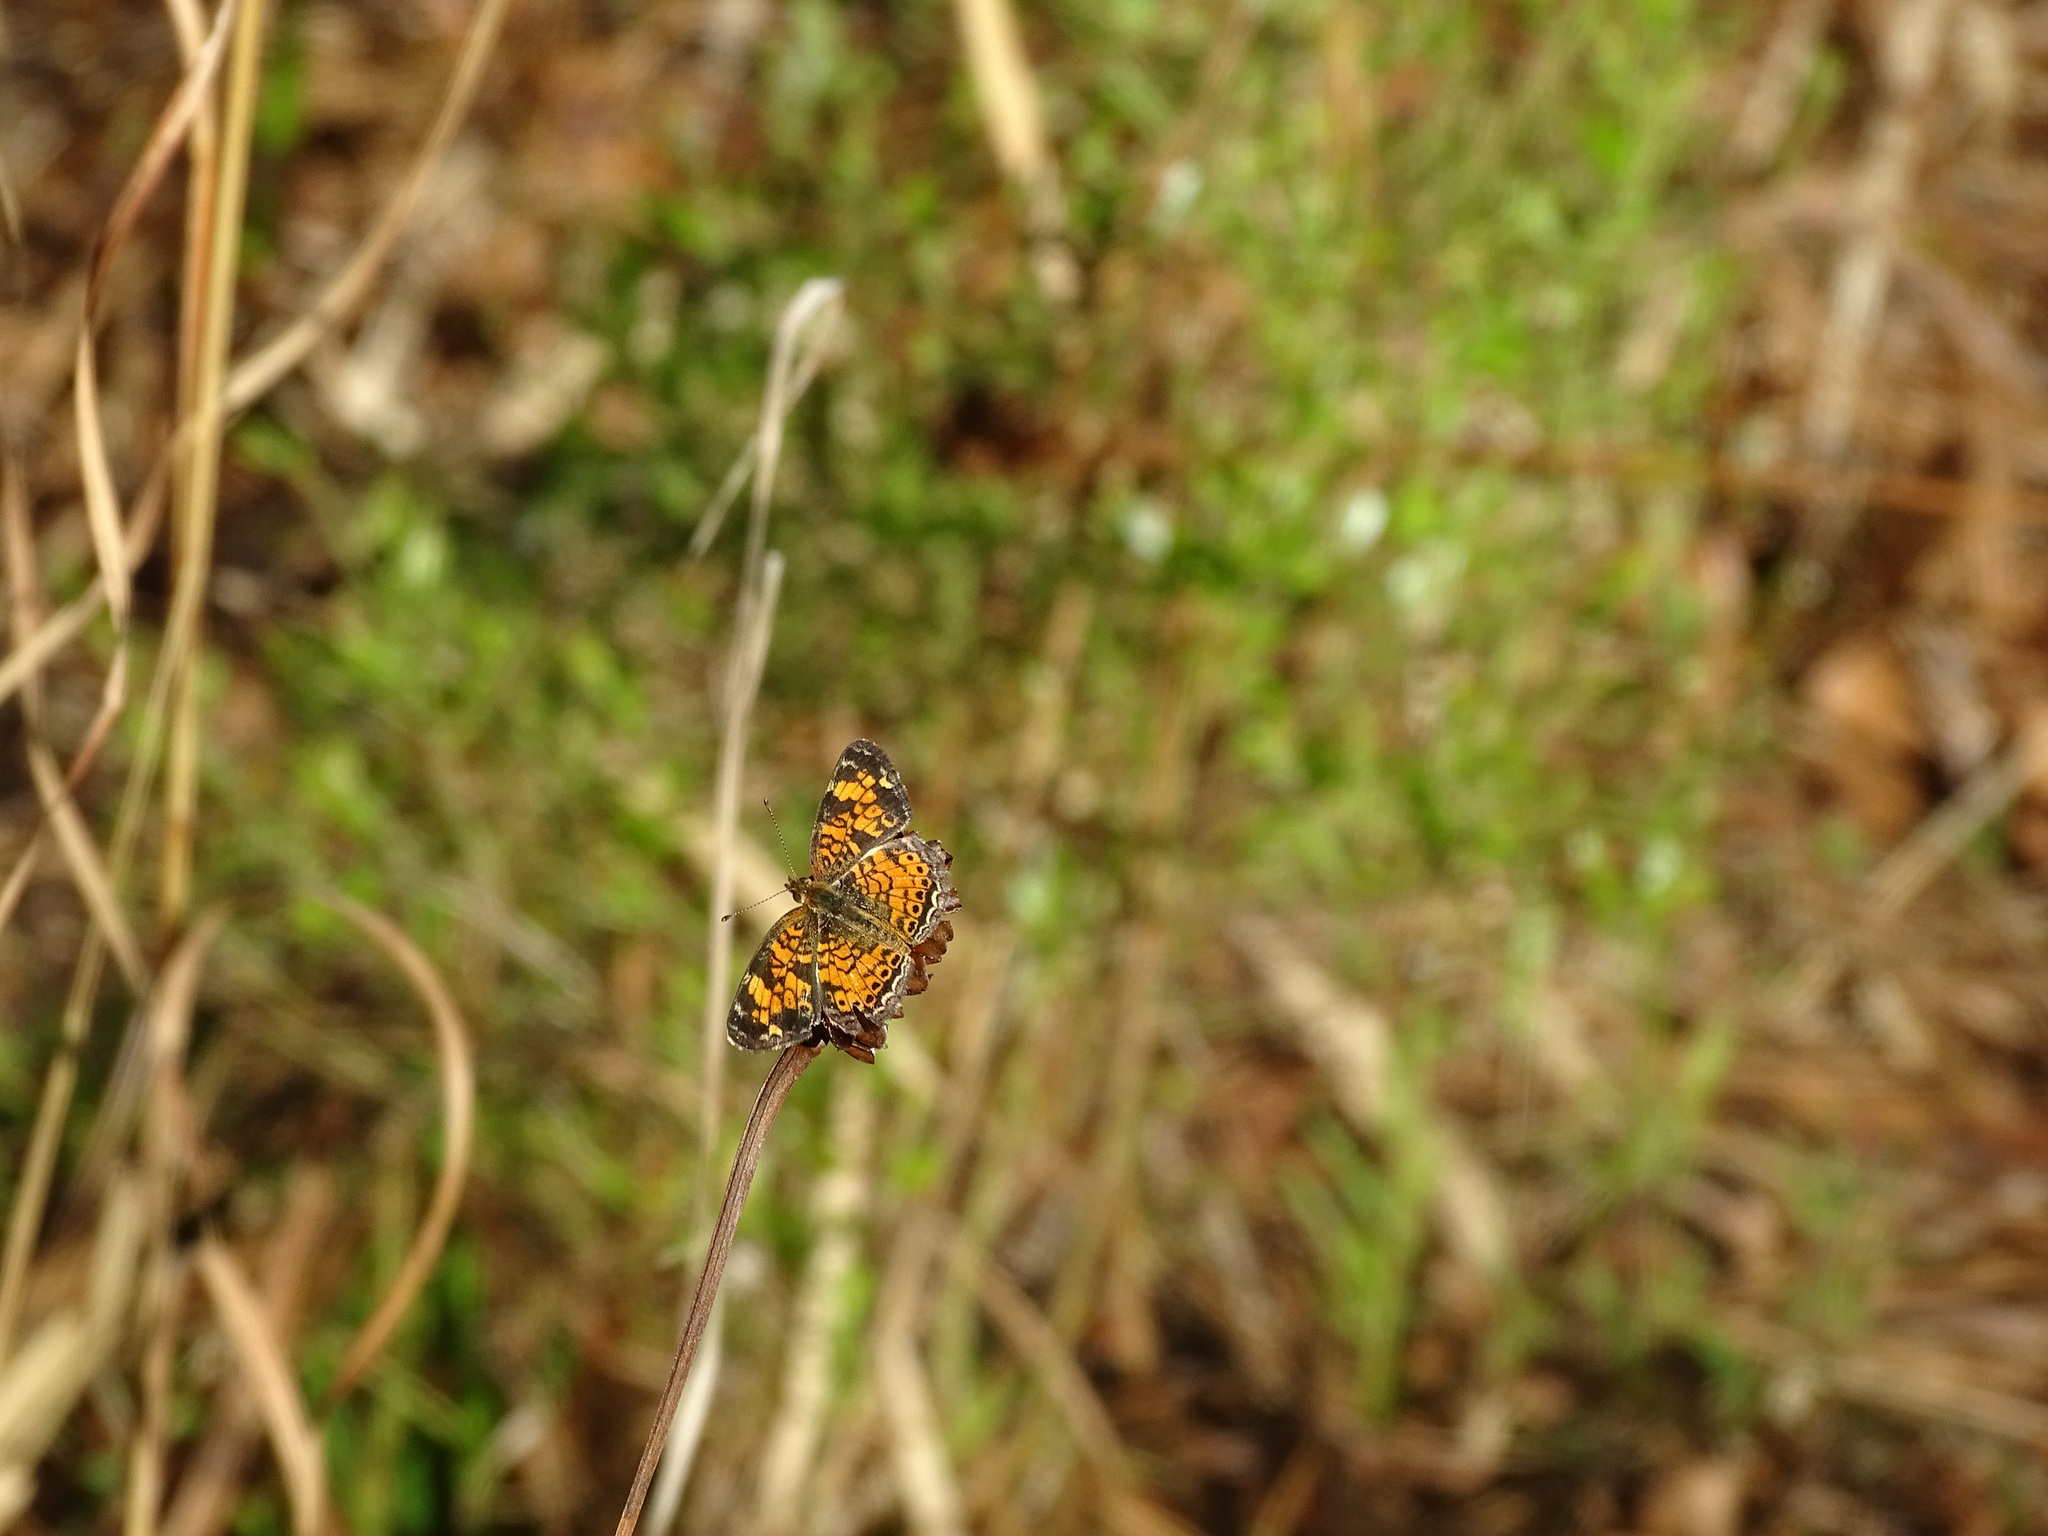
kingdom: Animalia
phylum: Arthropoda
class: Insecta
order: Lepidoptera
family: Nymphalidae
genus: Phyciodes
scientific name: Phyciodes tharos
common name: Pearl crescent
